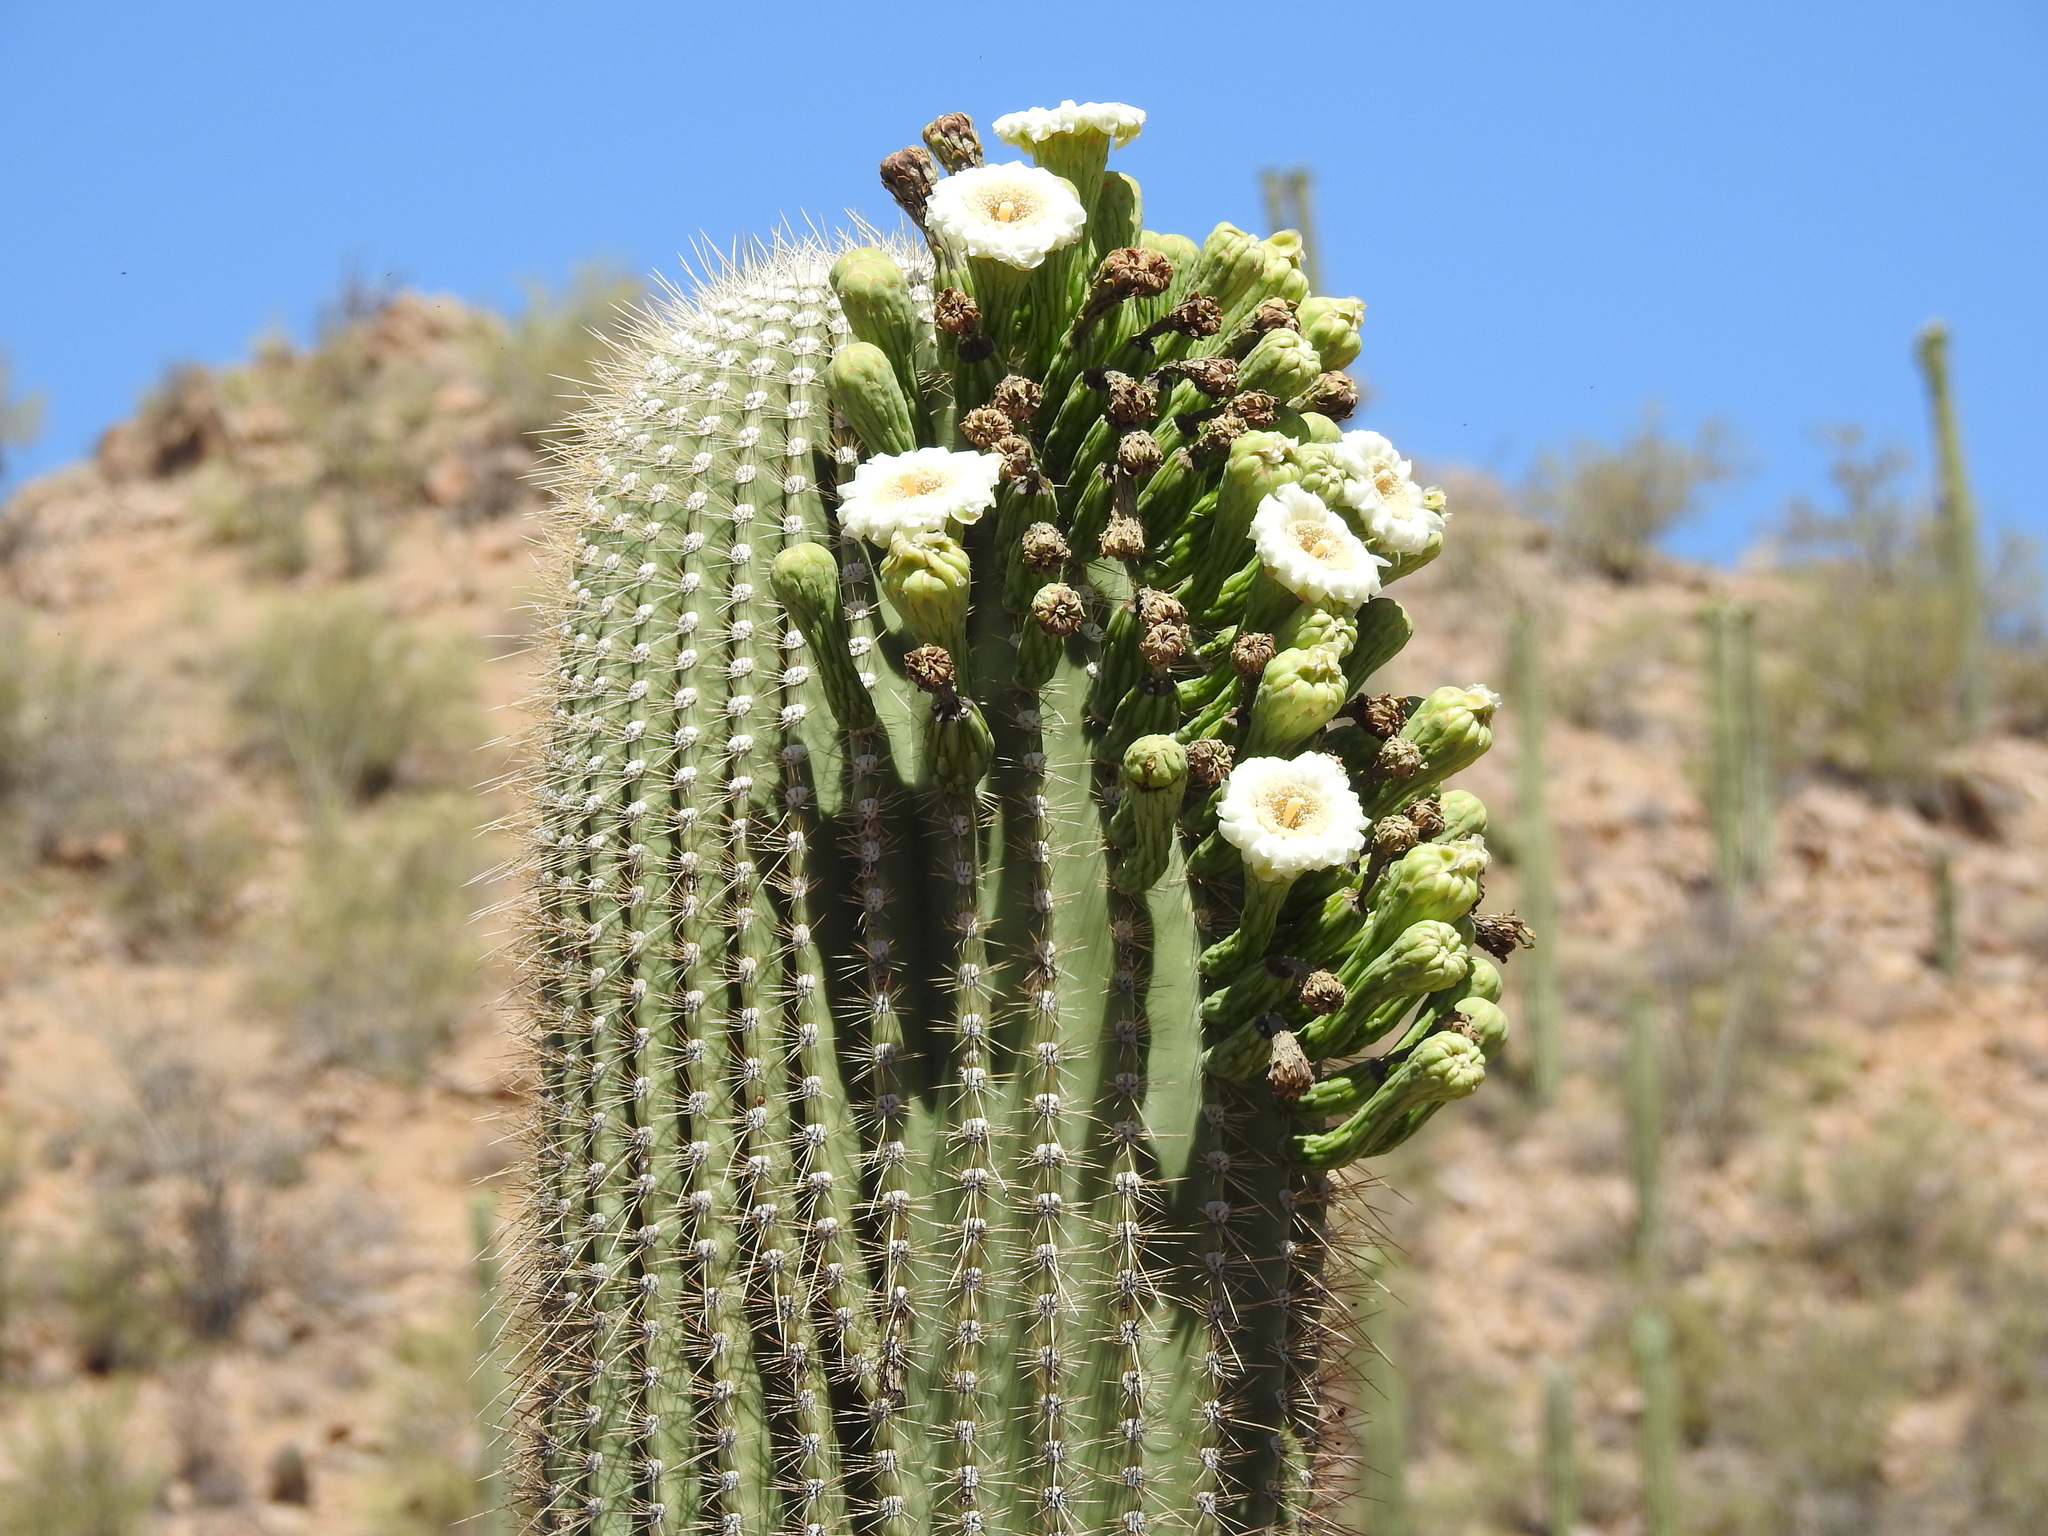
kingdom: Plantae
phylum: Tracheophyta
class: Magnoliopsida
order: Caryophyllales
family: Cactaceae
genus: Carnegiea
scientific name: Carnegiea gigantea
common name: Saguaro
